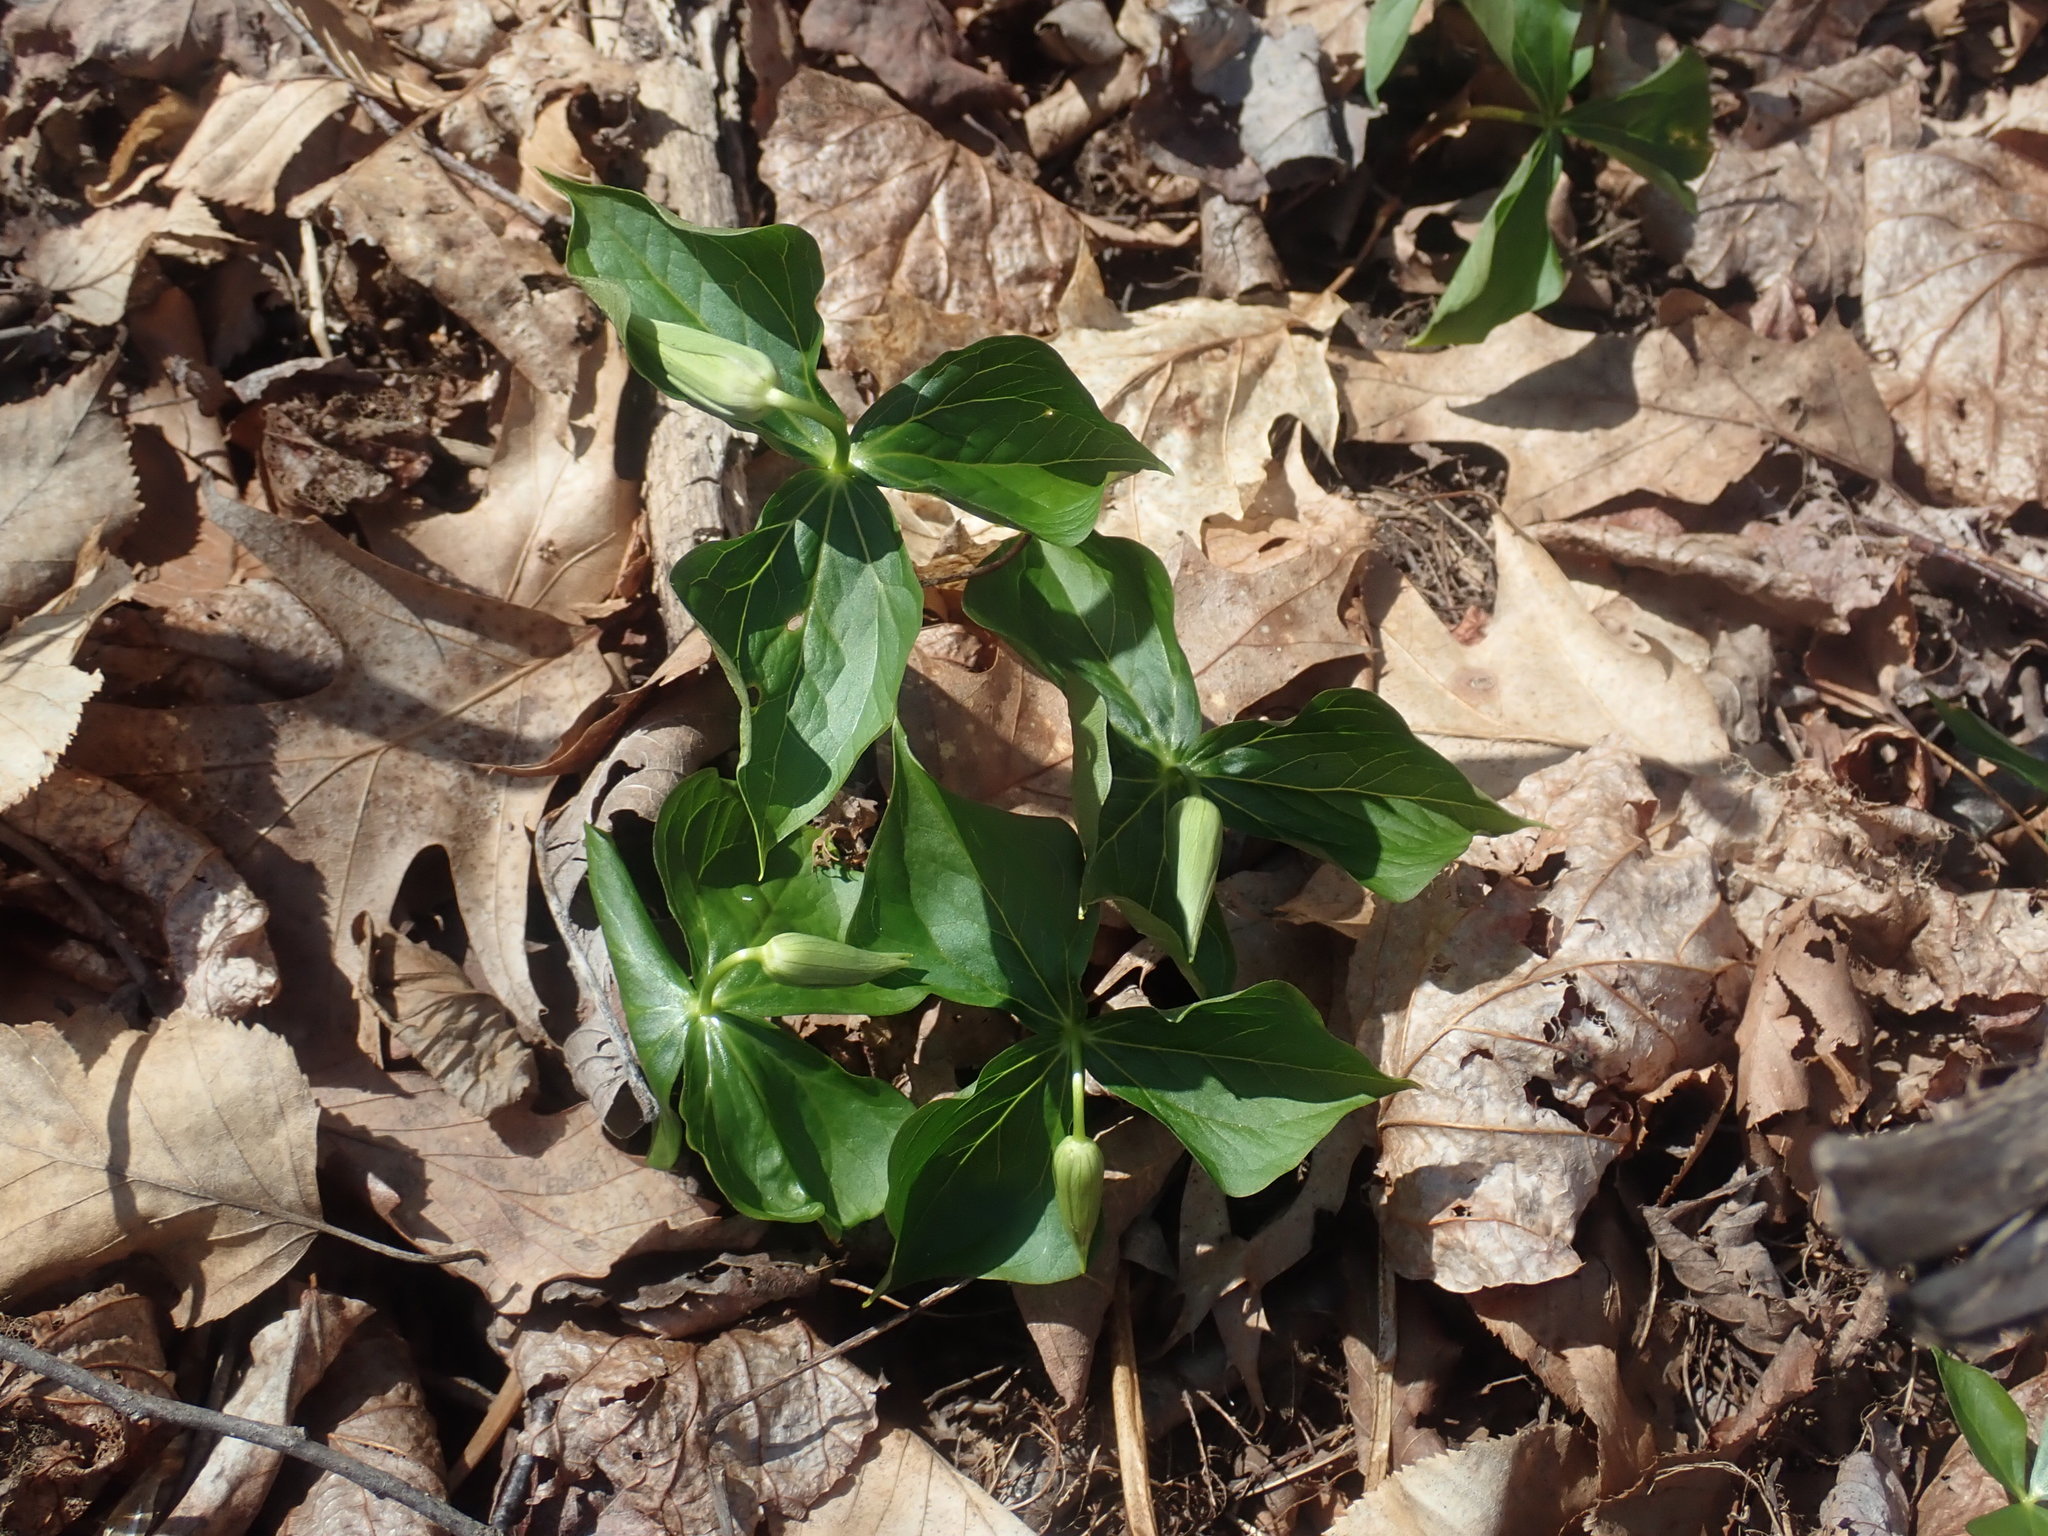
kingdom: Plantae
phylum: Tracheophyta
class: Liliopsida
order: Liliales
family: Melanthiaceae
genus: Trillium
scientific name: Trillium erectum
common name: Purple trillium
